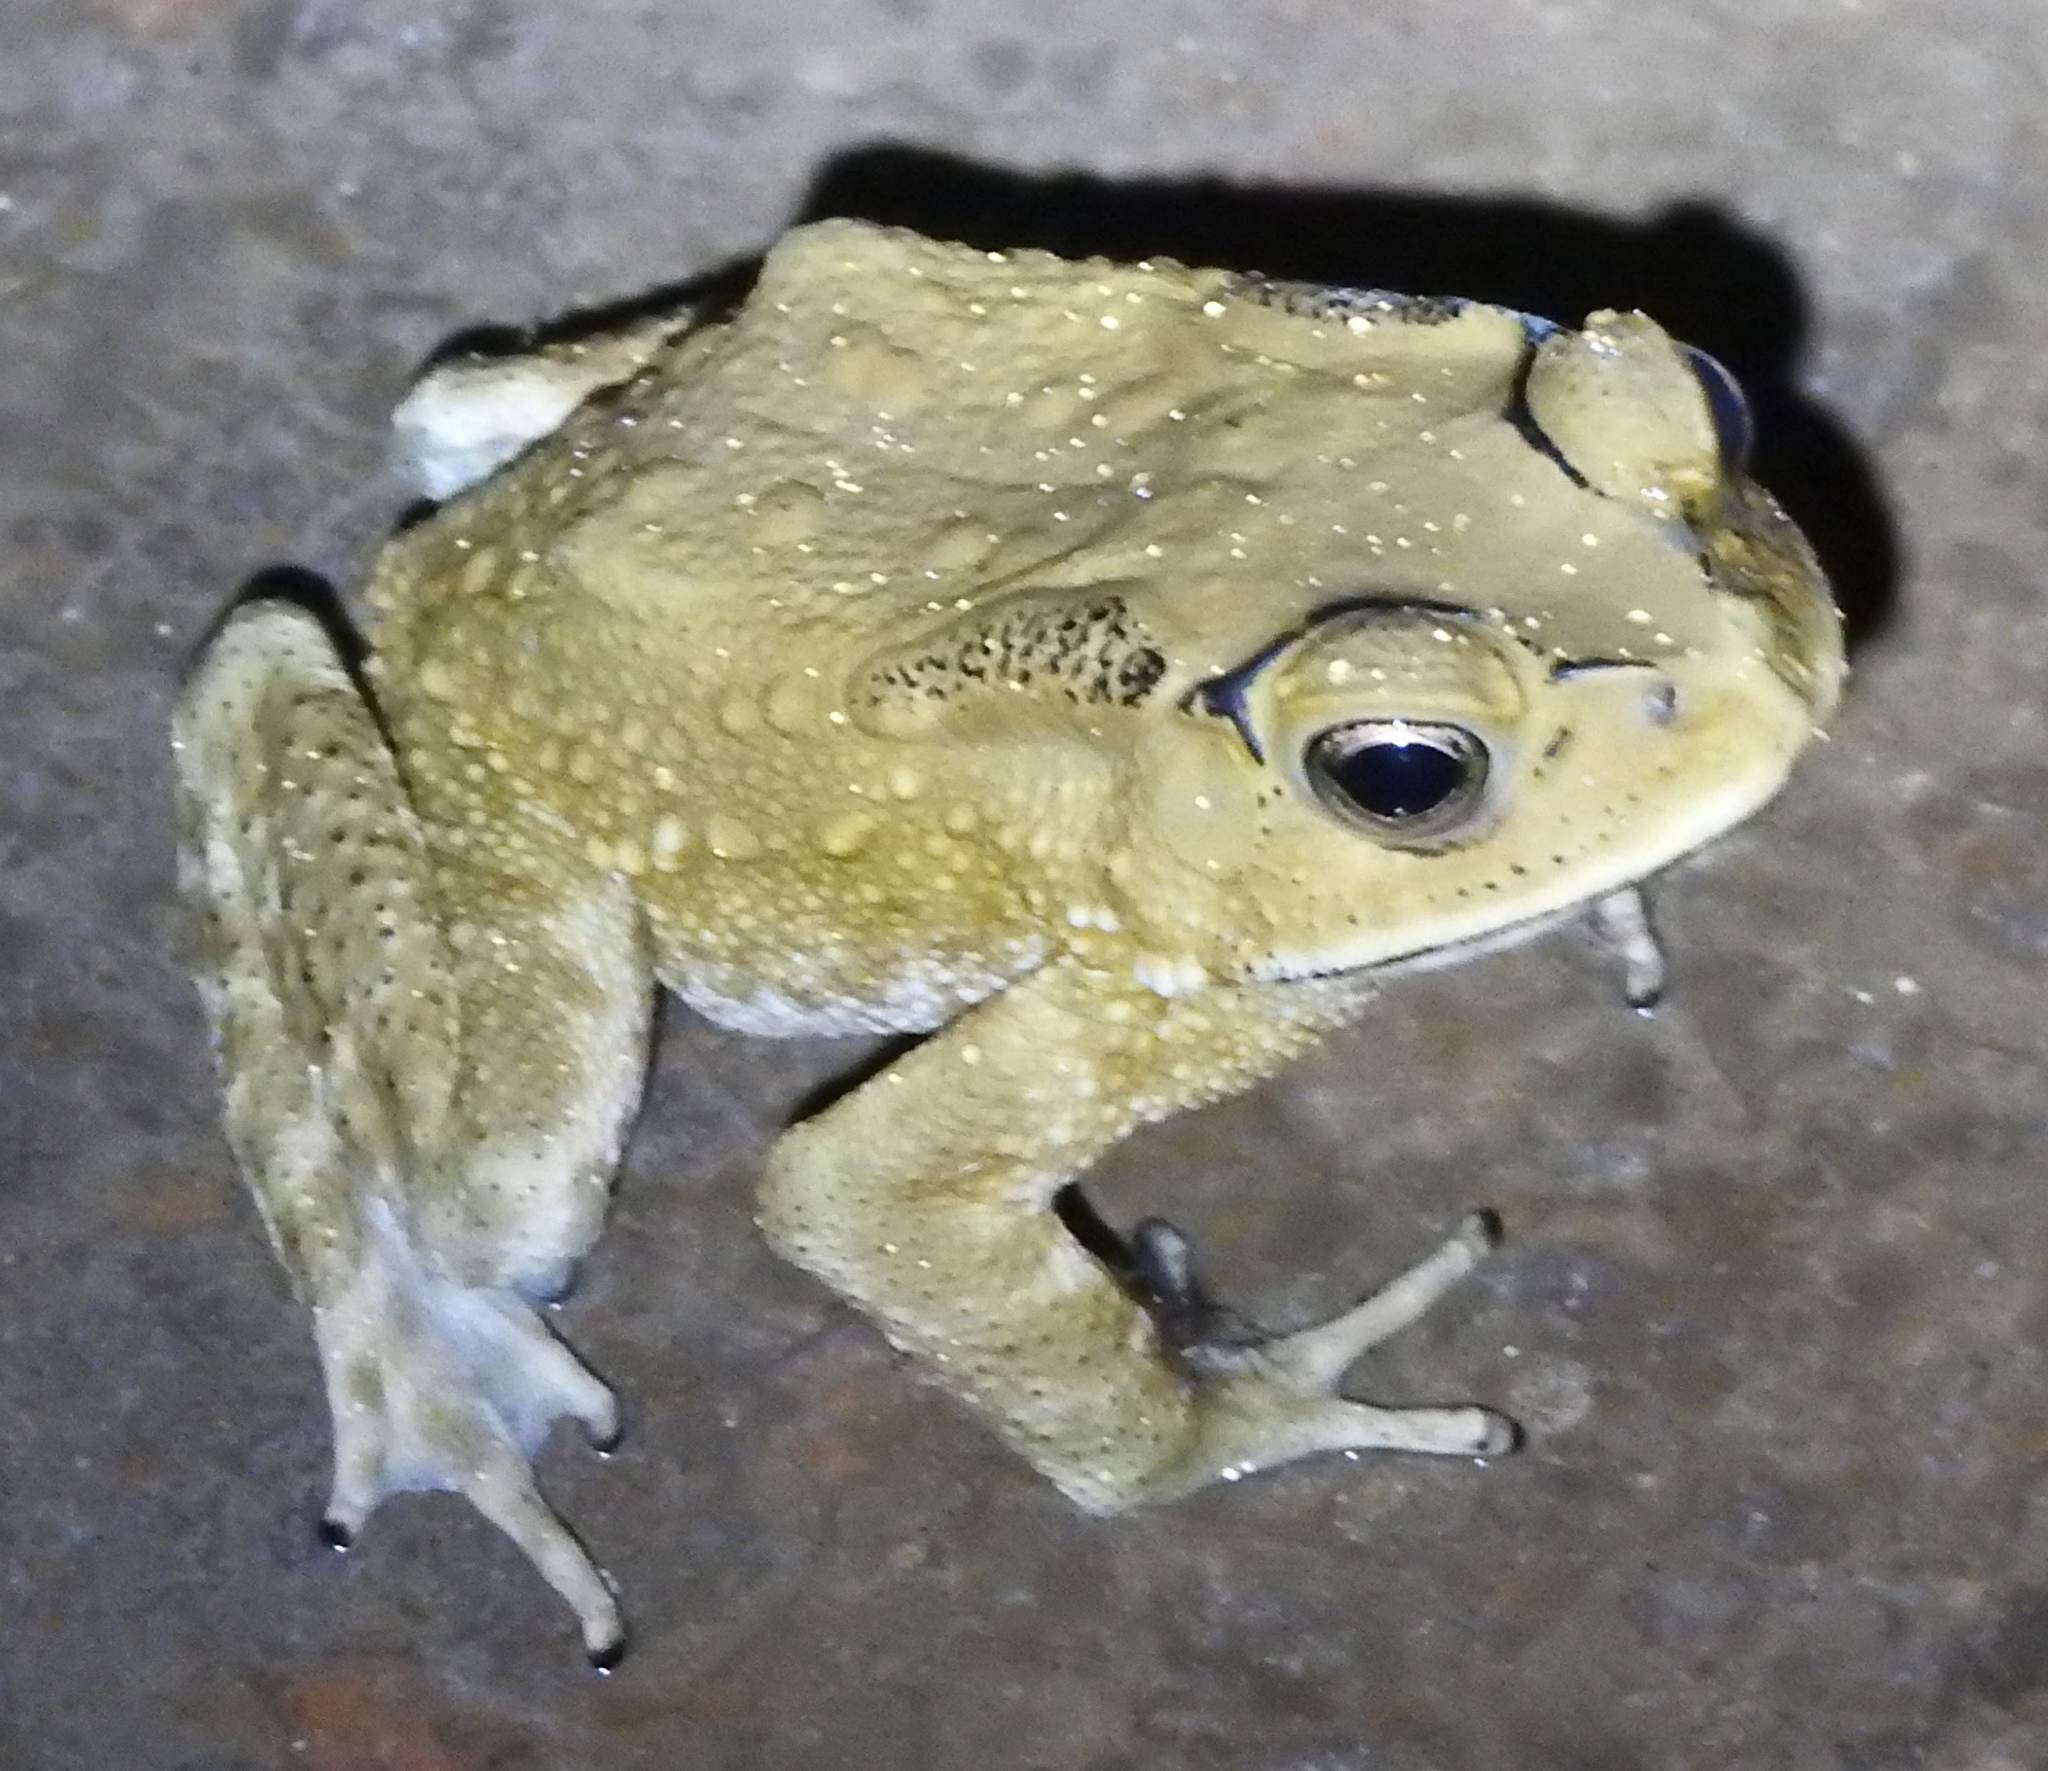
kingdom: Animalia
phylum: Chordata
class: Amphibia
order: Anura
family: Bufonidae
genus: Duttaphrynus
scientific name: Duttaphrynus melanostictus
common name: Common sunda toad
